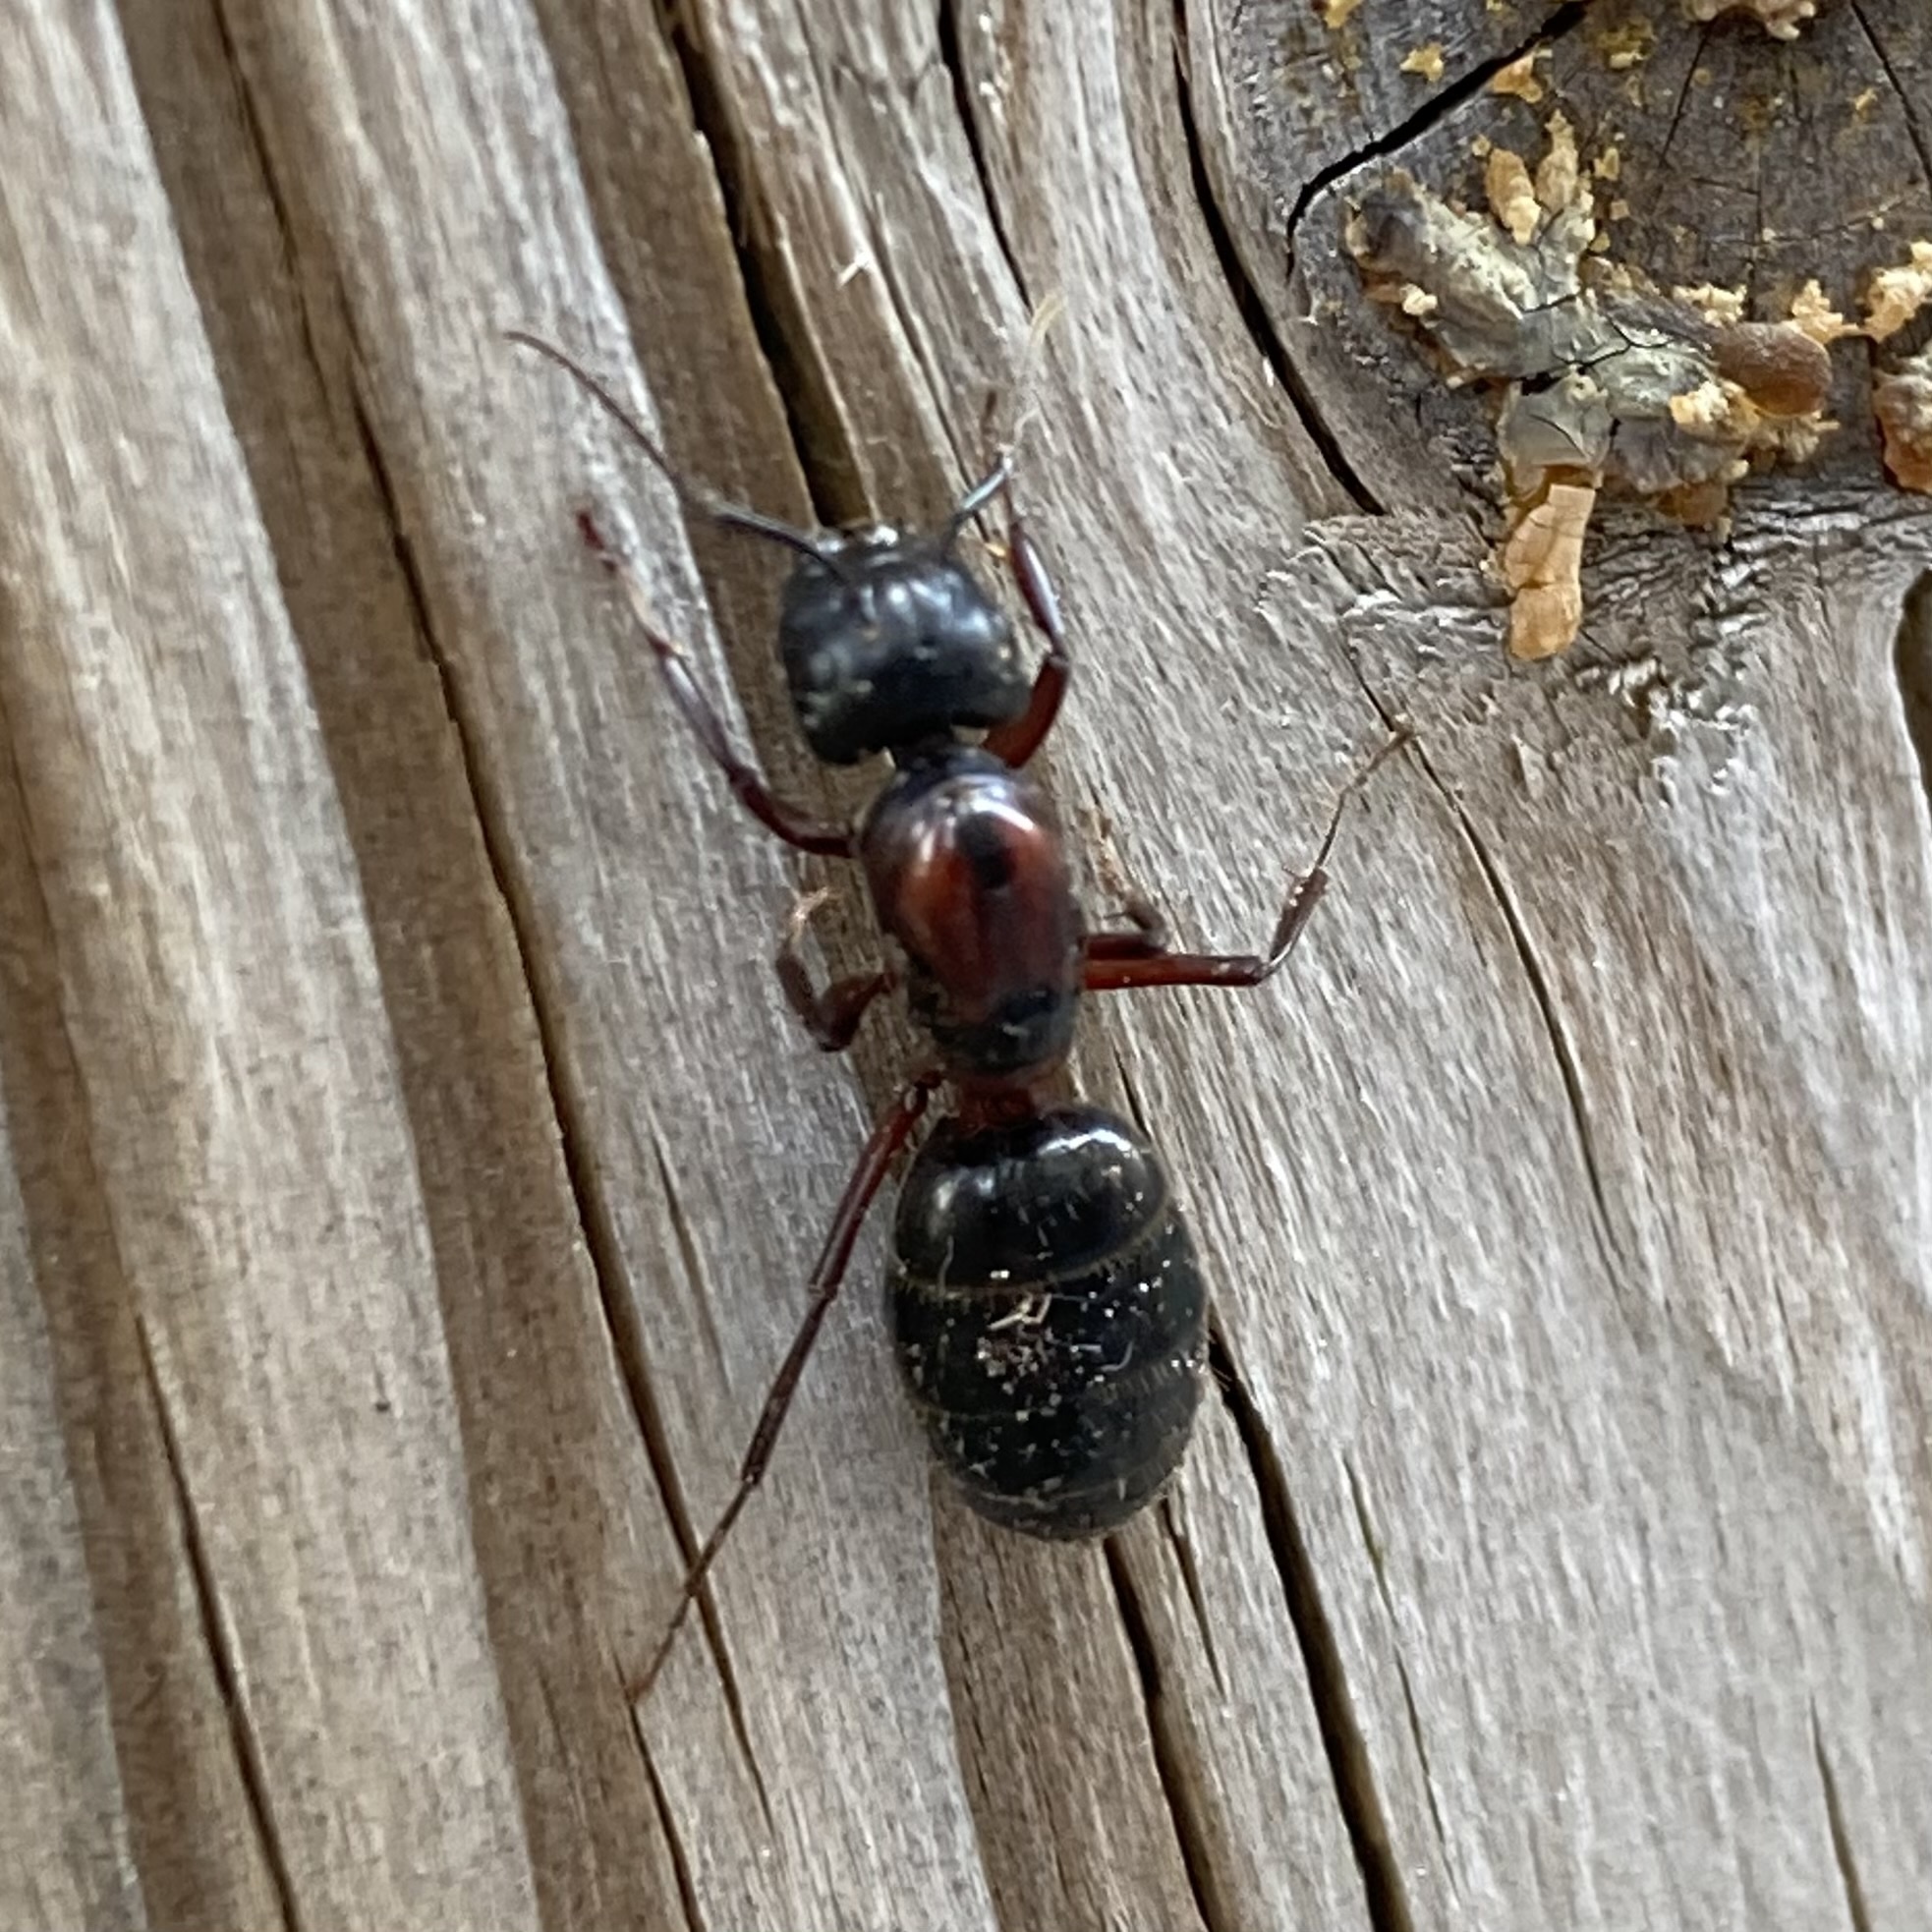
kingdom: Animalia
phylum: Arthropoda
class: Insecta
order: Hymenoptera
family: Formicidae
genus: Camponotus
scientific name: Camponotus novaeboracensis
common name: New york carpenter ant
